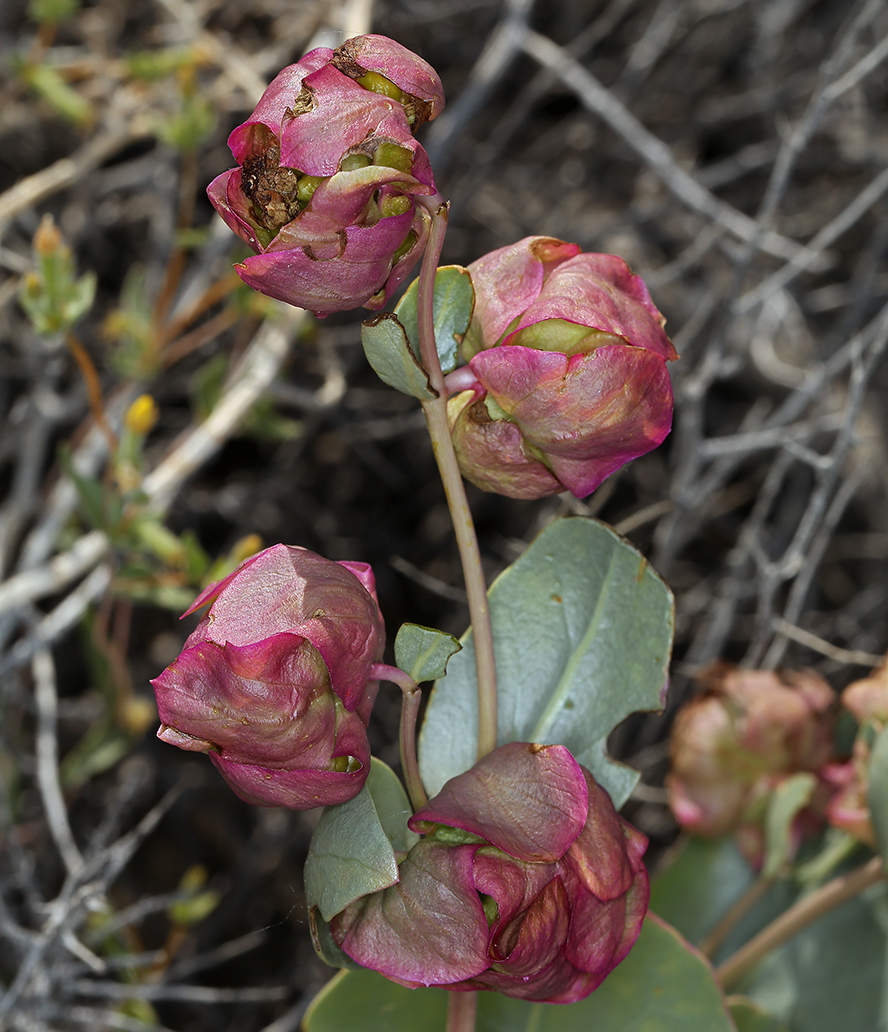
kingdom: Plantae
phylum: Tracheophyta
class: Magnoliopsida
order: Caryophyllales
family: Nyctaginaceae
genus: Mirabilis
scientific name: Mirabilis alipes
